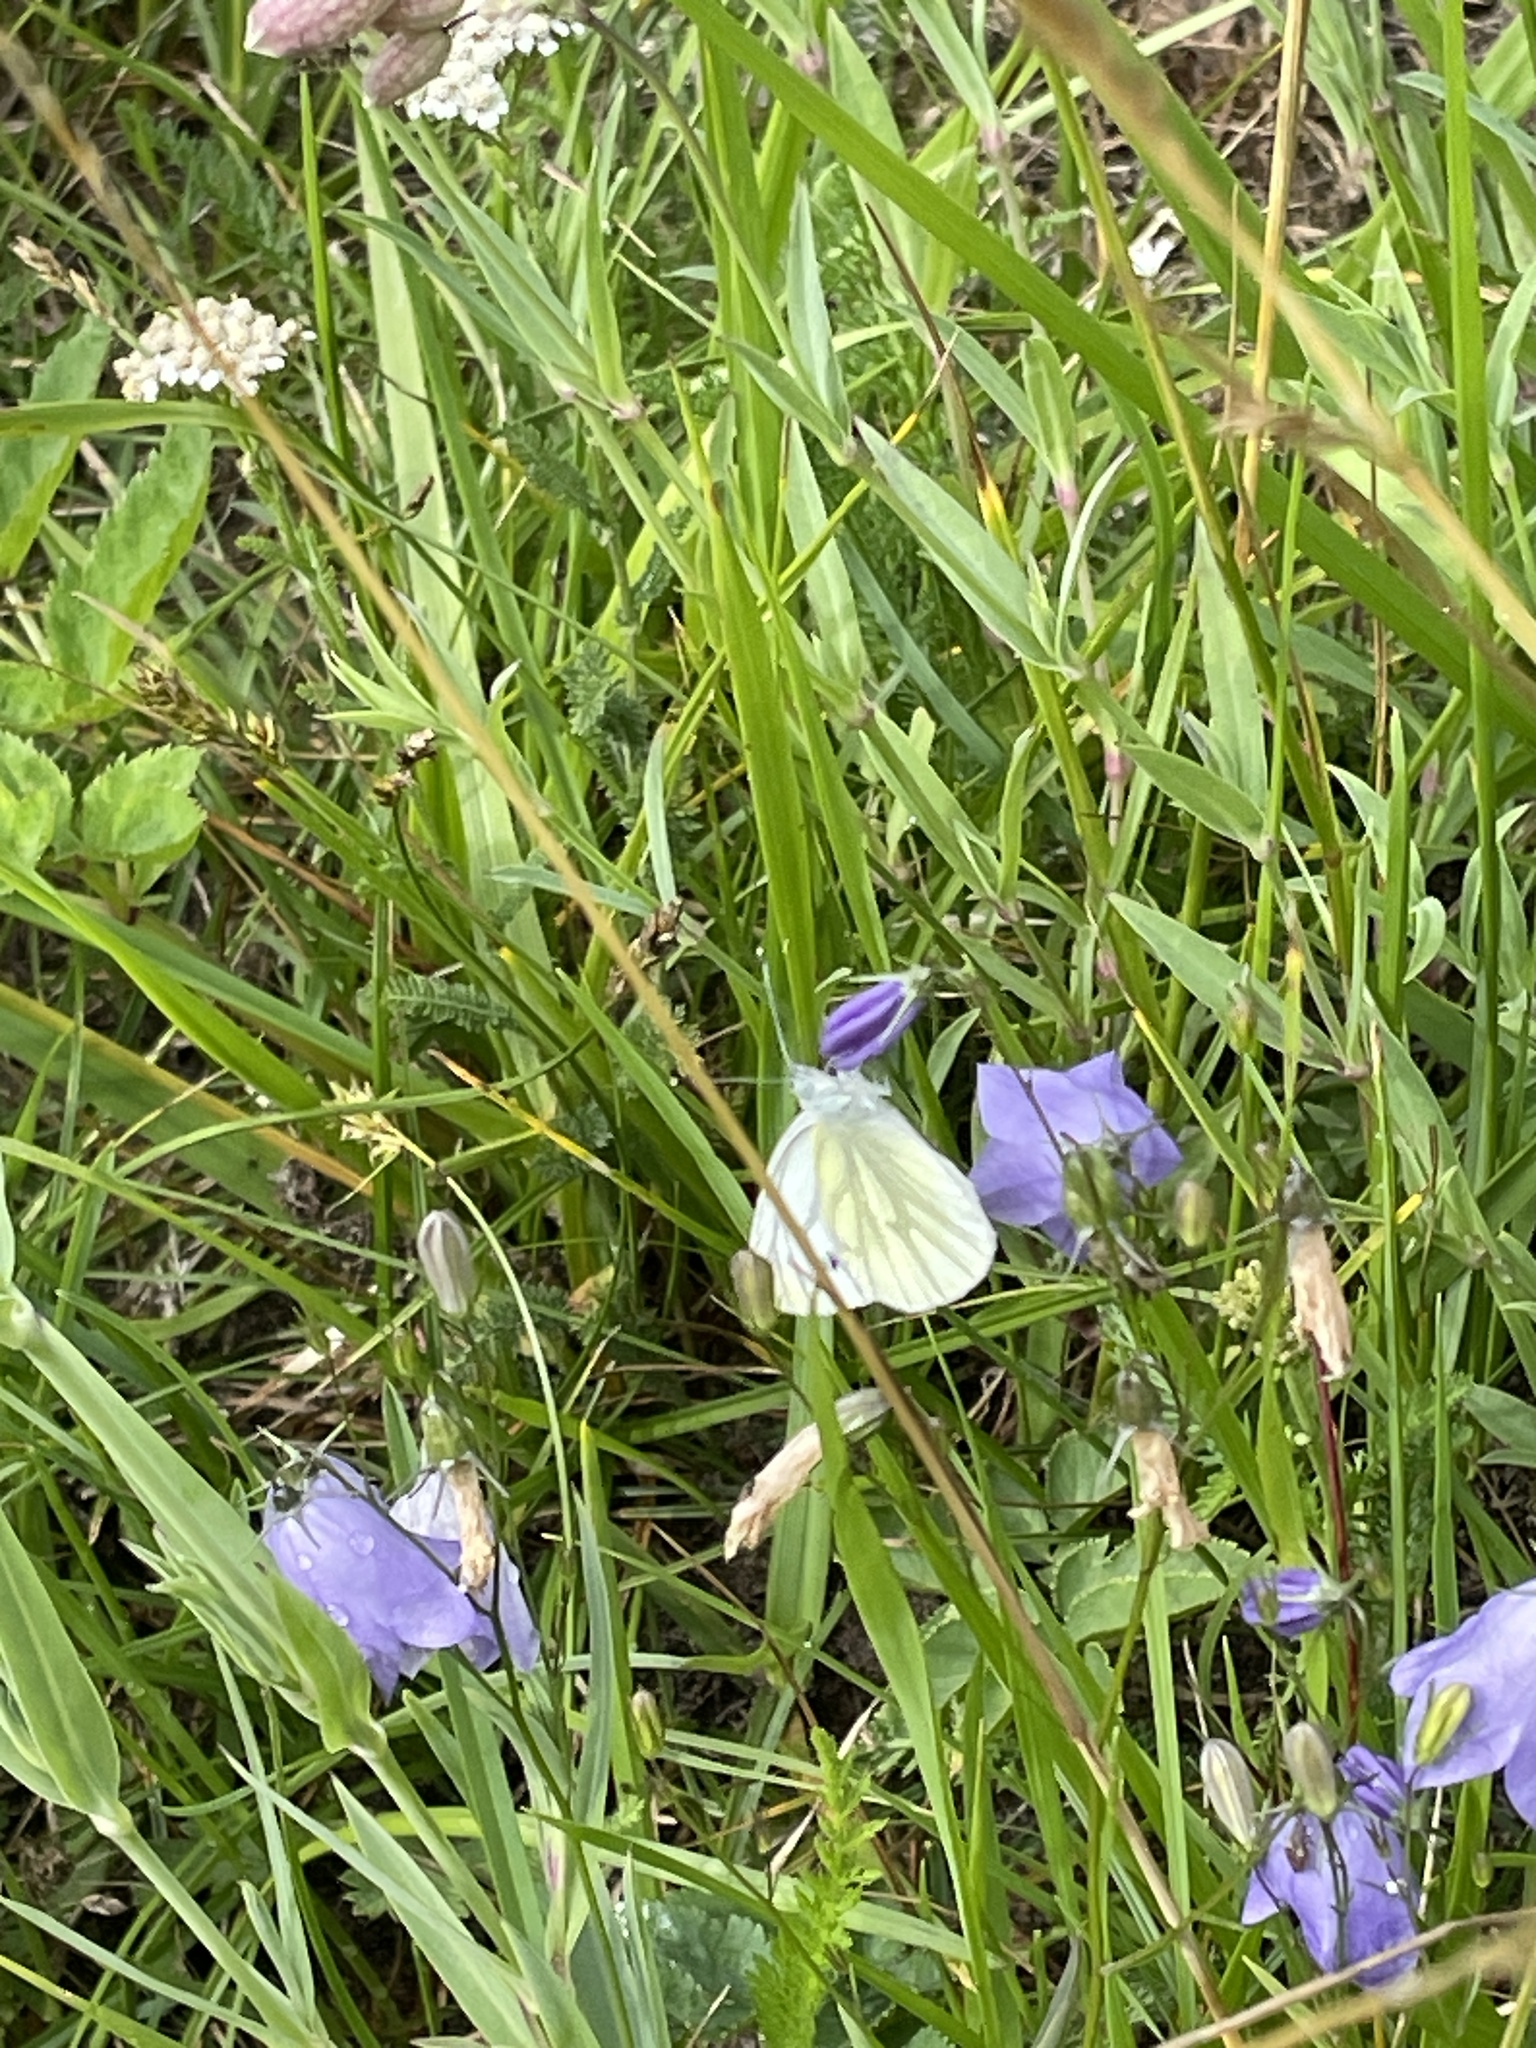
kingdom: Animalia
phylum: Arthropoda
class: Insecta
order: Lepidoptera
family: Pieridae
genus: Pieris
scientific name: Pieris napi
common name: Green-veined white
